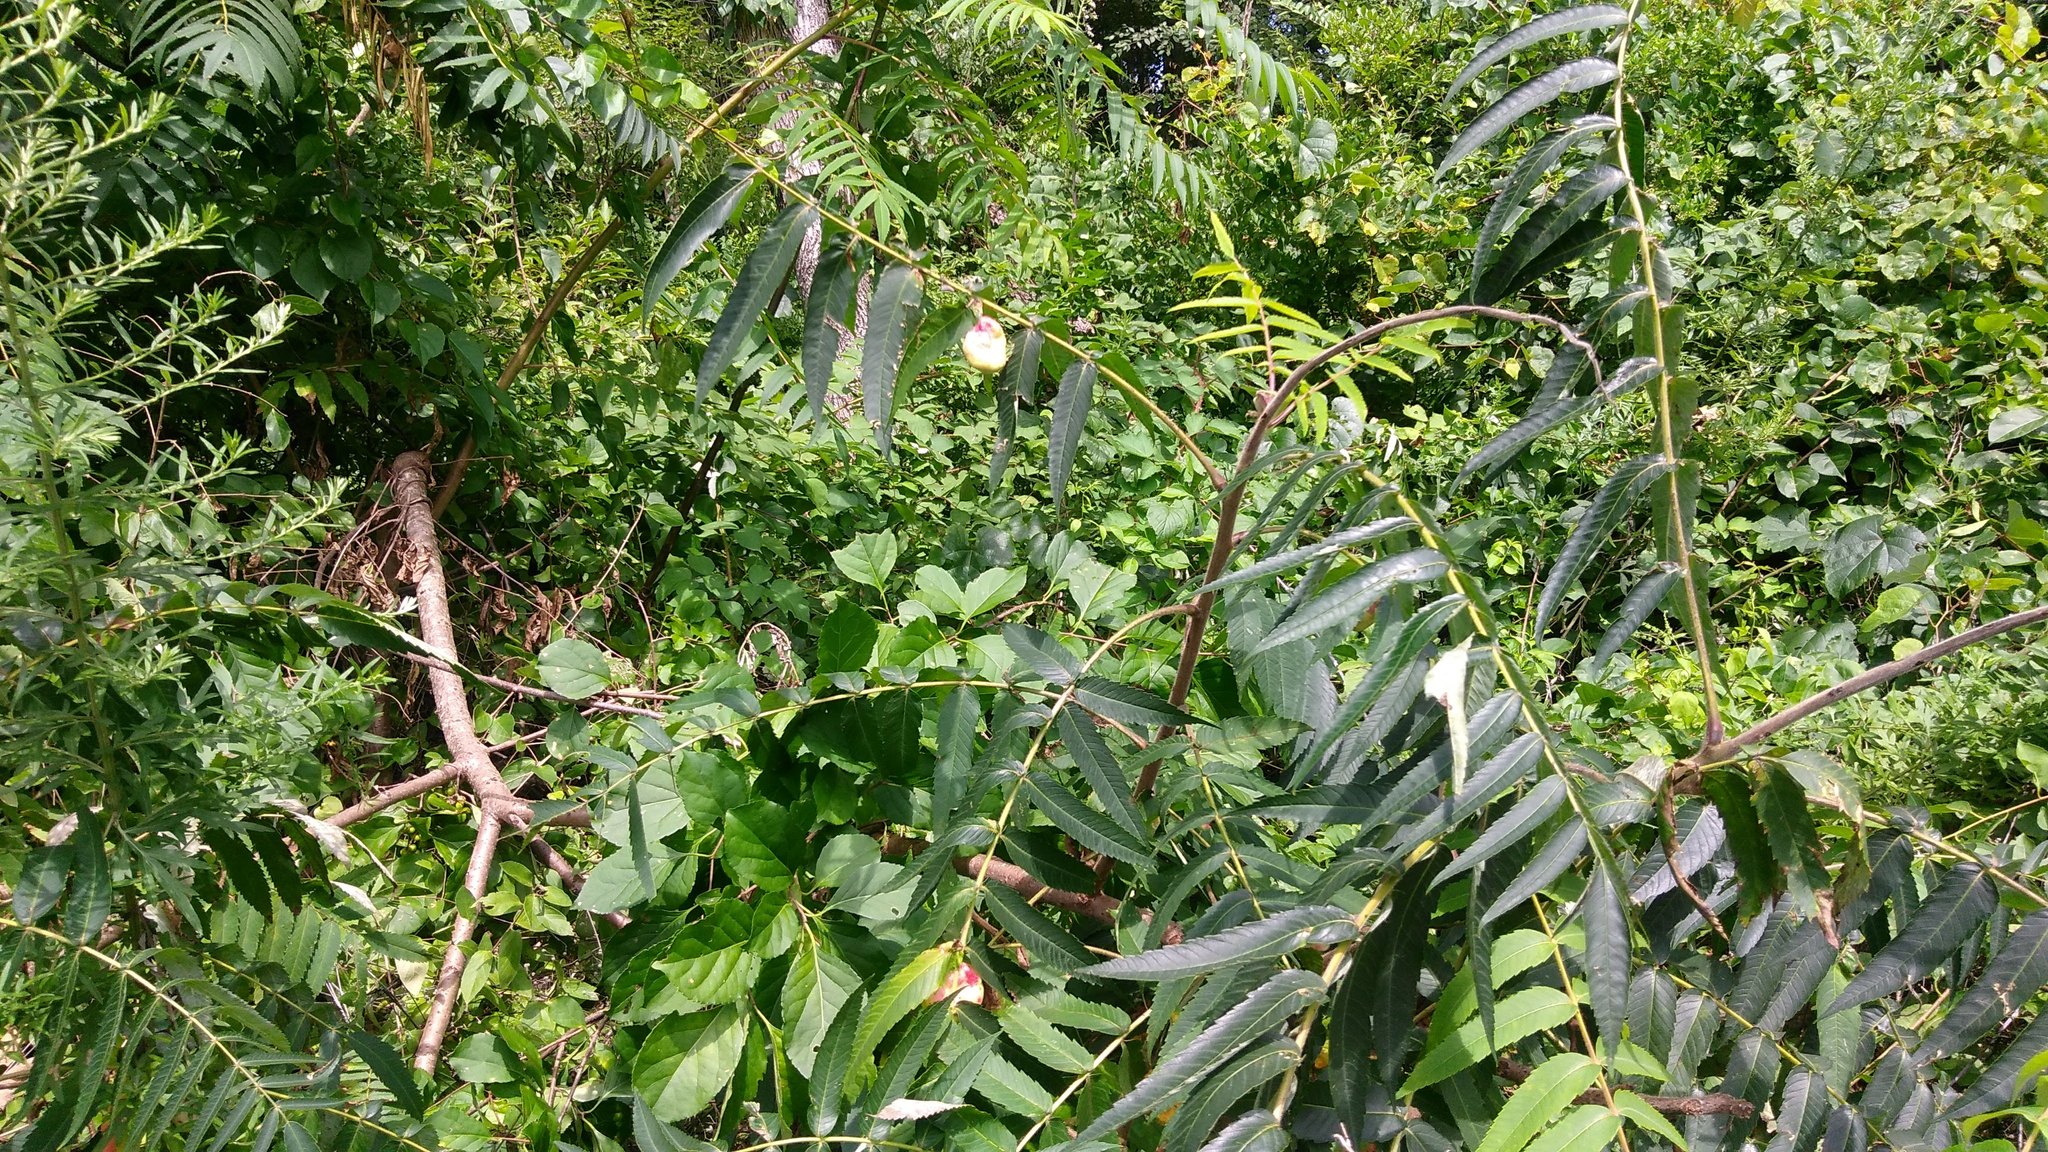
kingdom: Animalia
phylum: Arthropoda
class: Insecta
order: Hemiptera
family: Aphididae
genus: Melaphis
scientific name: Melaphis rhois
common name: Sumac gall aphid
